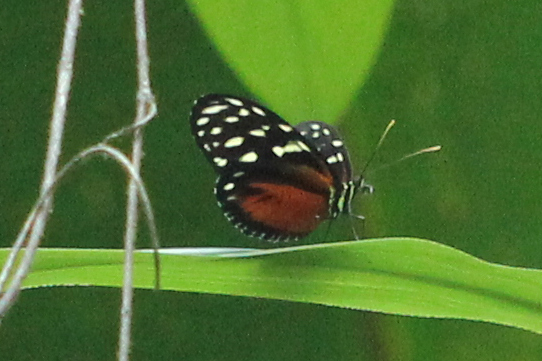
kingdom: Animalia
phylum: Arthropoda
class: Insecta
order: Lepidoptera
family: Nymphalidae
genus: Heliconius
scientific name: Heliconius hecale
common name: Tiger longwing
